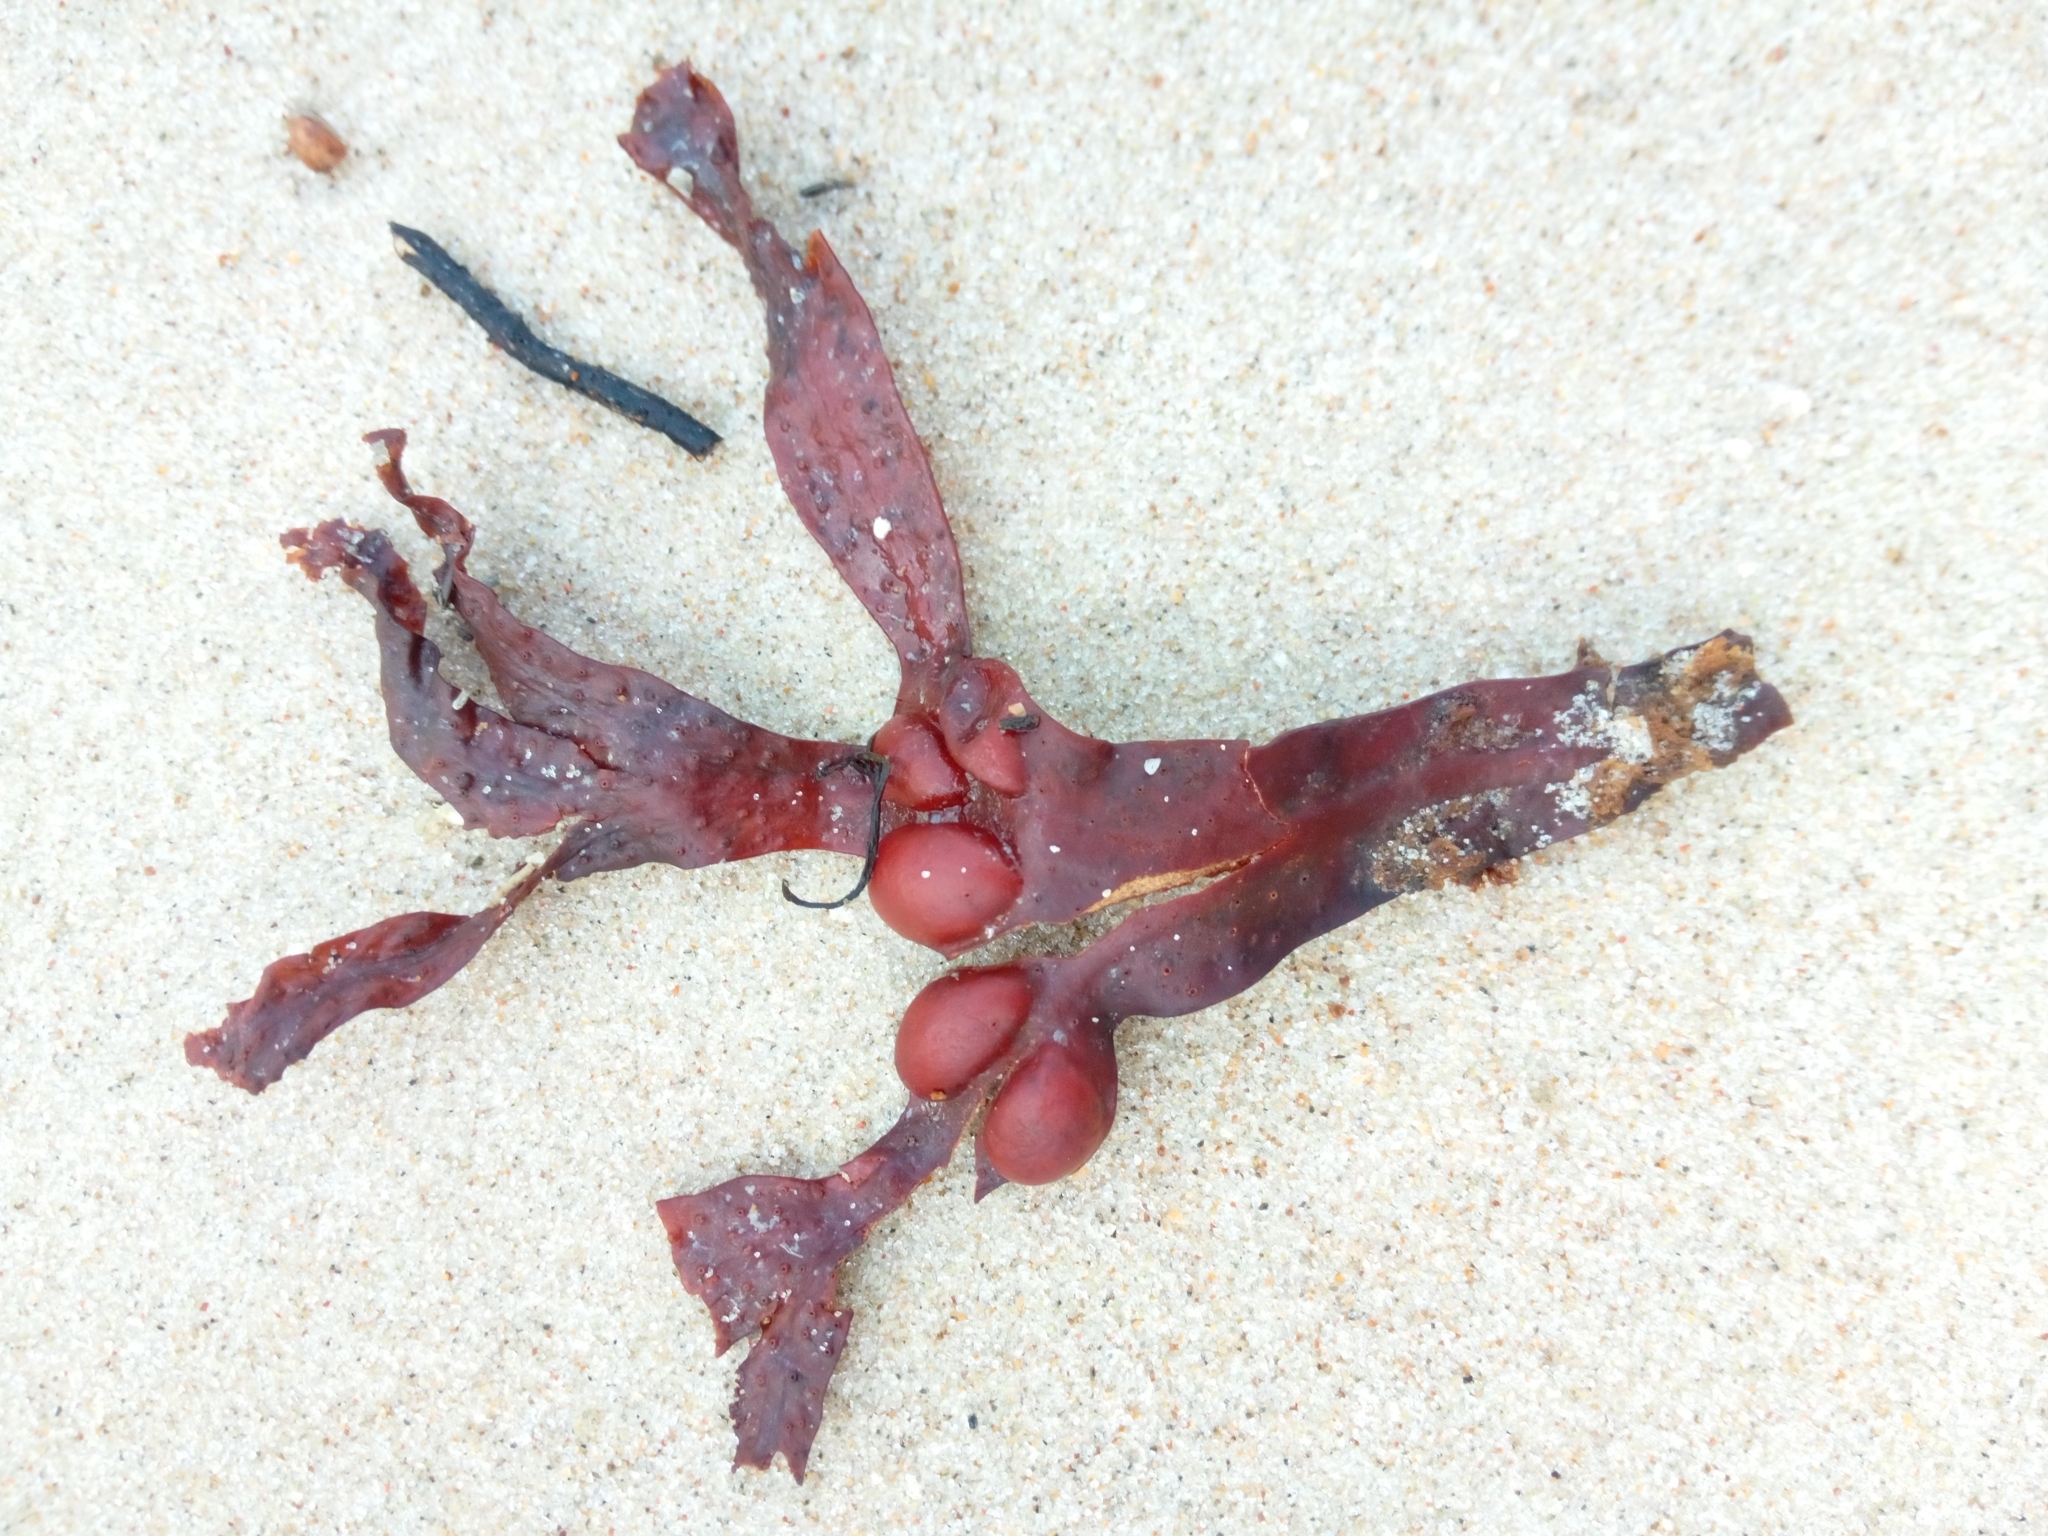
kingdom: Chromista
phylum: Ochrophyta
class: Phaeophyceae
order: Fucales
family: Fucaceae
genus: Fucus
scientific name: Fucus vesiculosus
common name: Bladder wrack
